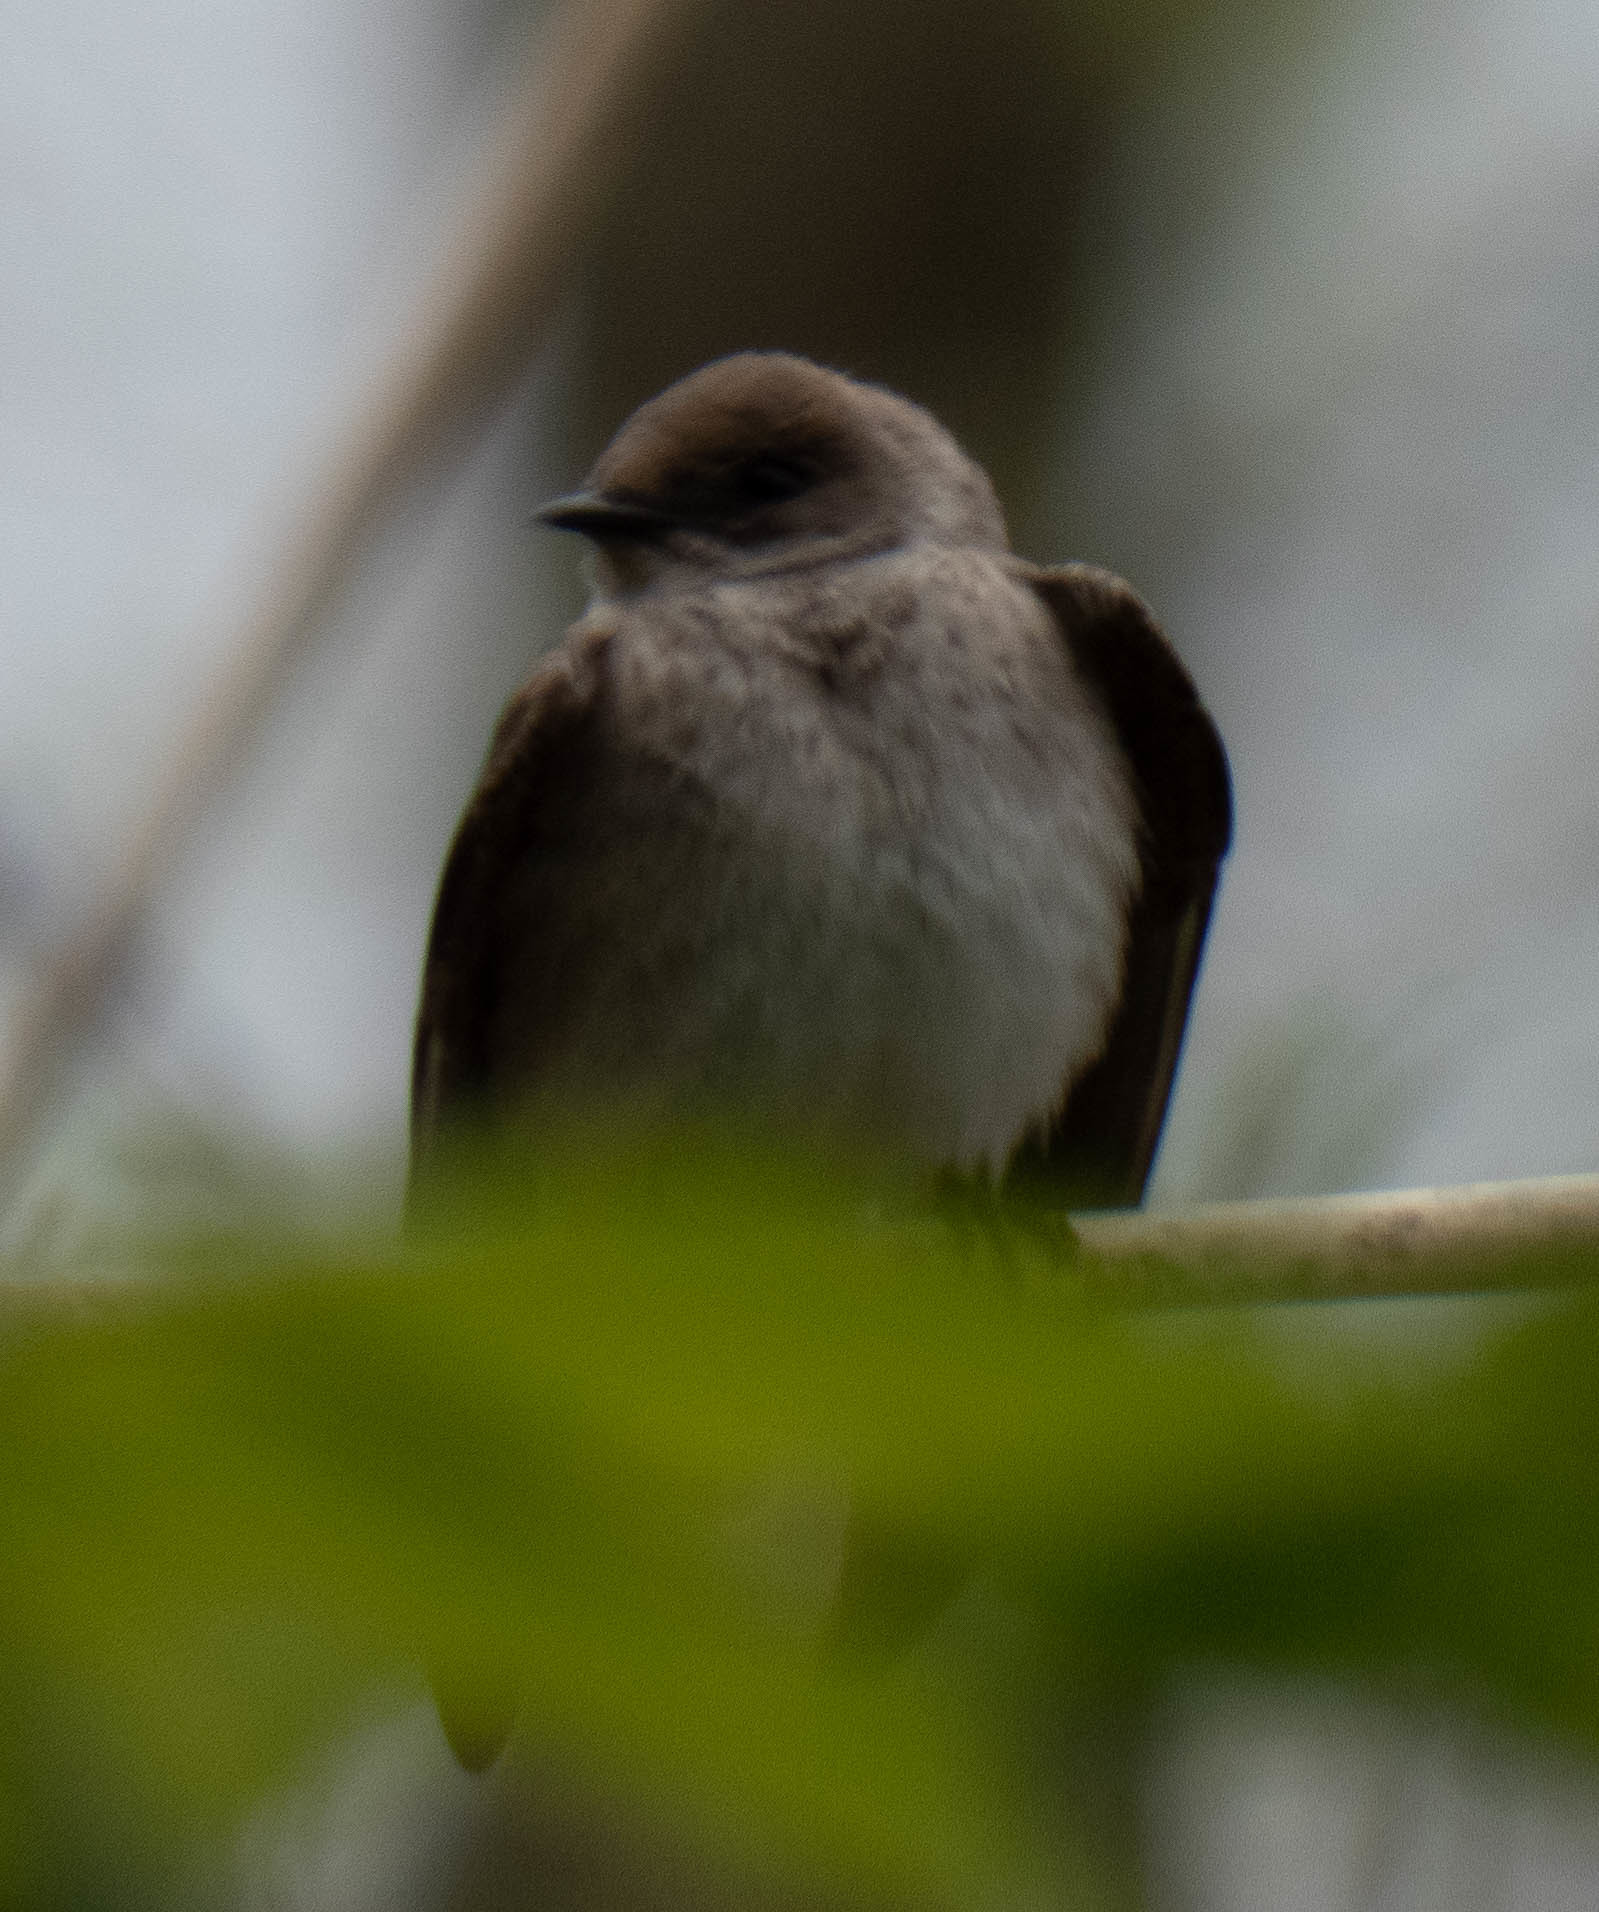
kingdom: Animalia
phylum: Chordata
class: Aves
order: Passeriformes
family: Hirundinidae
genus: Stelgidopteryx
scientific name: Stelgidopteryx serripennis
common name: Northern rough-winged swallow
